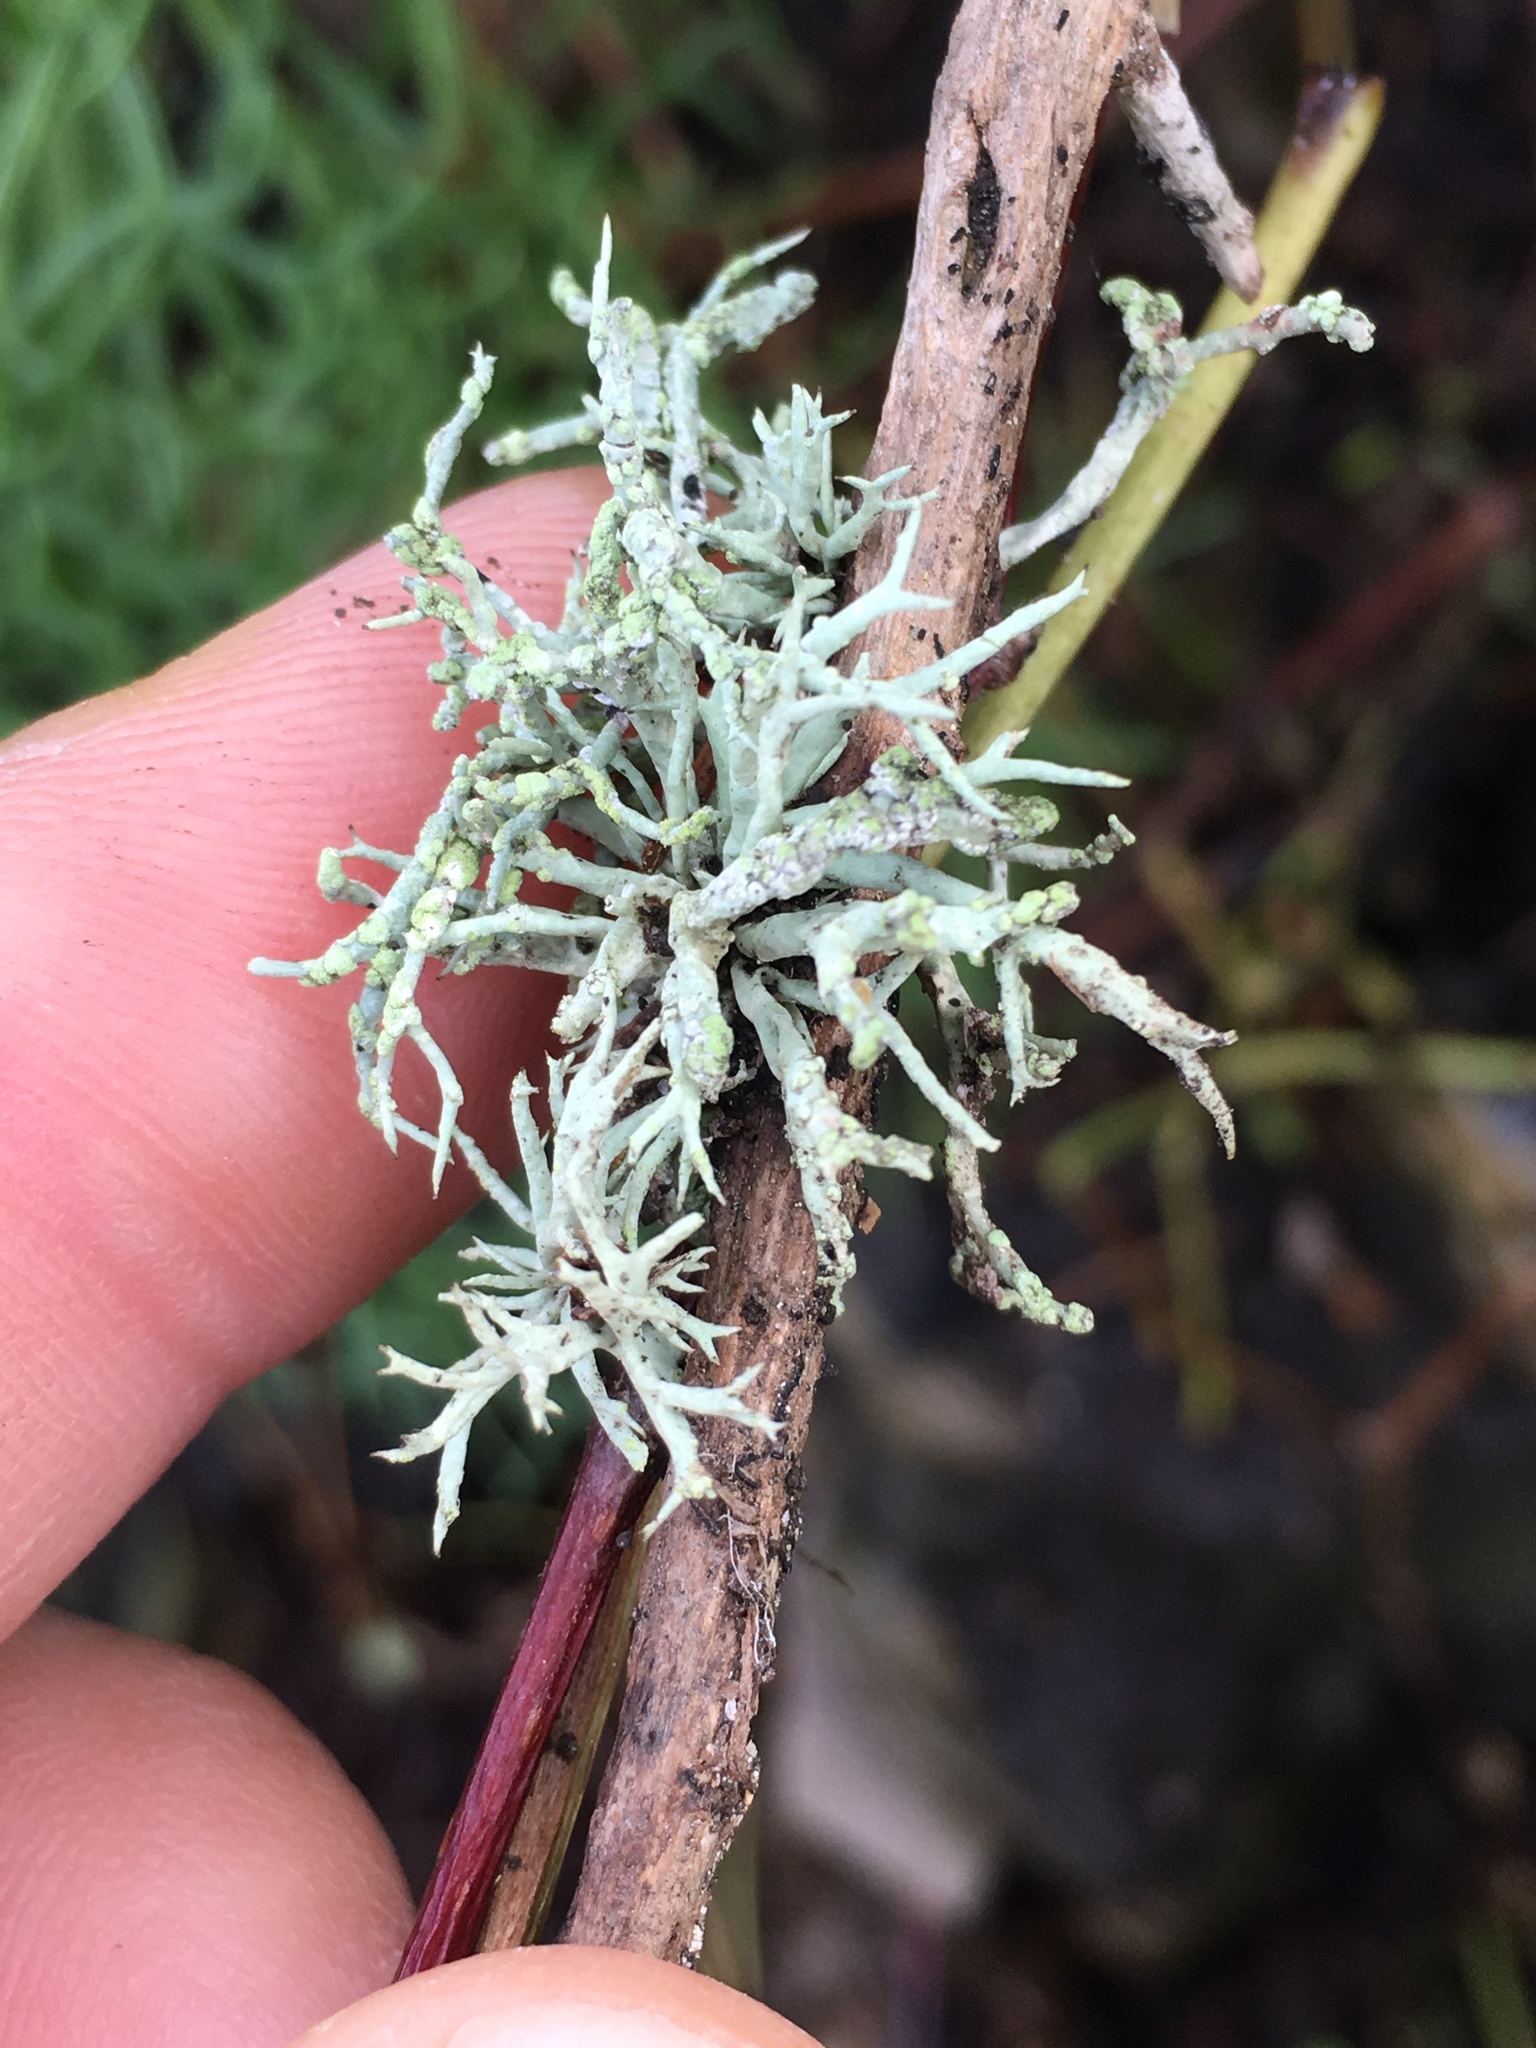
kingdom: Fungi
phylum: Ascomycota
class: Lecanoromycetes
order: Lecanorales
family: Ramalinaceae
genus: Niebla
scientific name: Niebla cephalota
